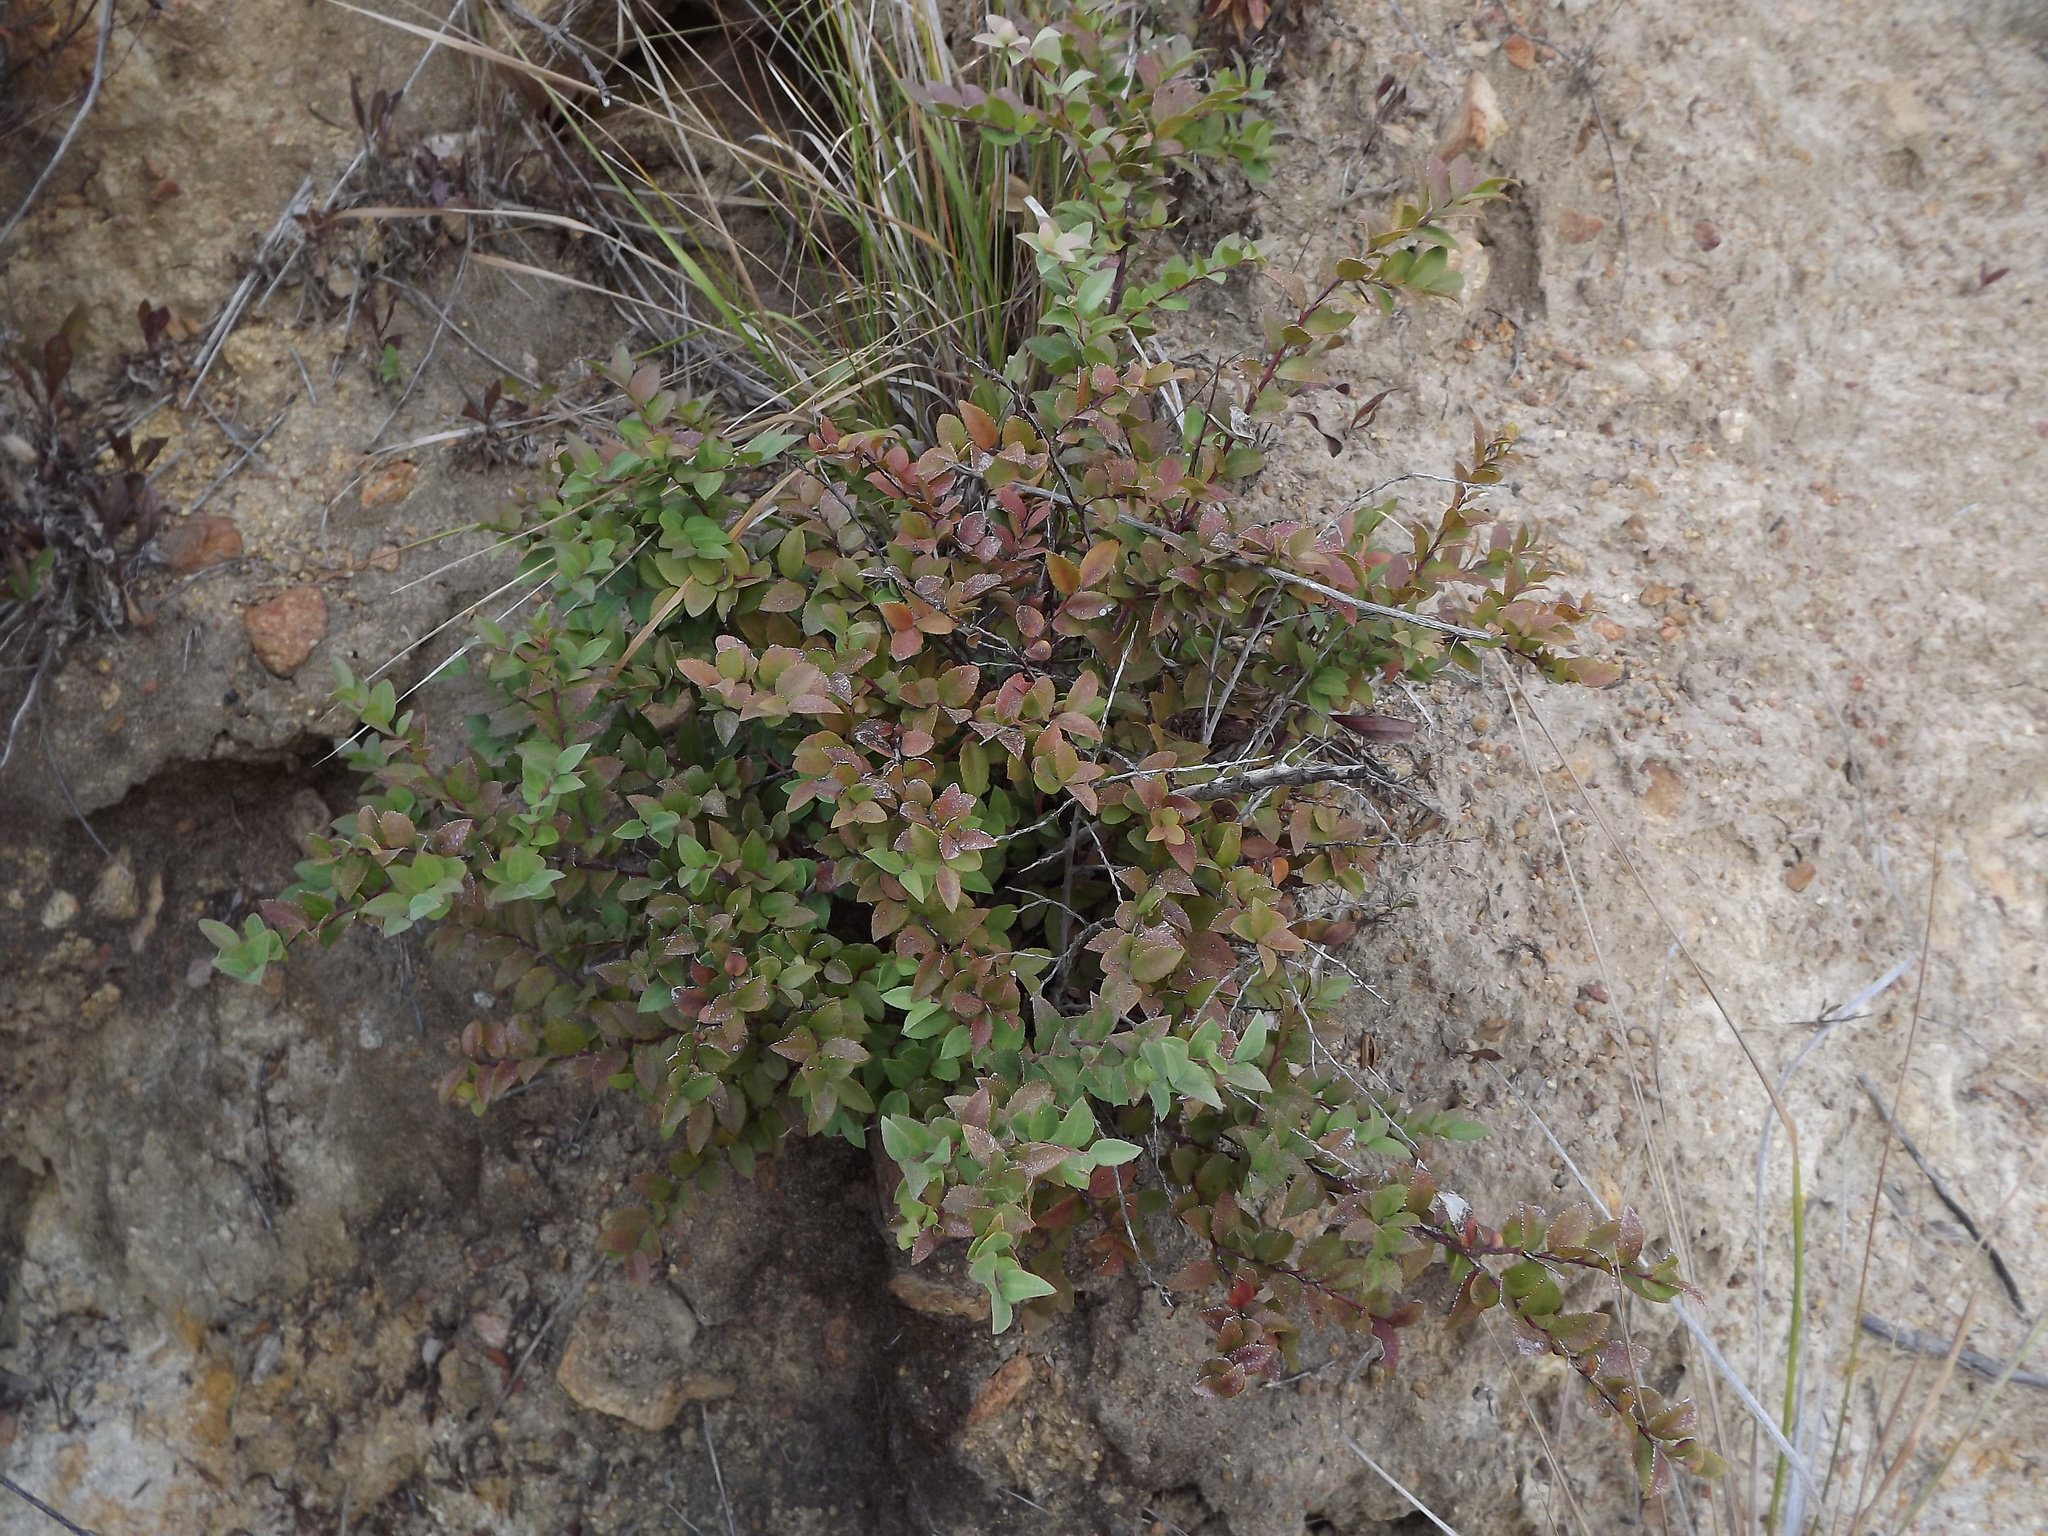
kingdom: Plantae
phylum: Tracheophyta
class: Magnoliopsida
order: Ericales
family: Ericaceae
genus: Vaccinium
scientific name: Vaccinium ovatum
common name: California-huckleberry
